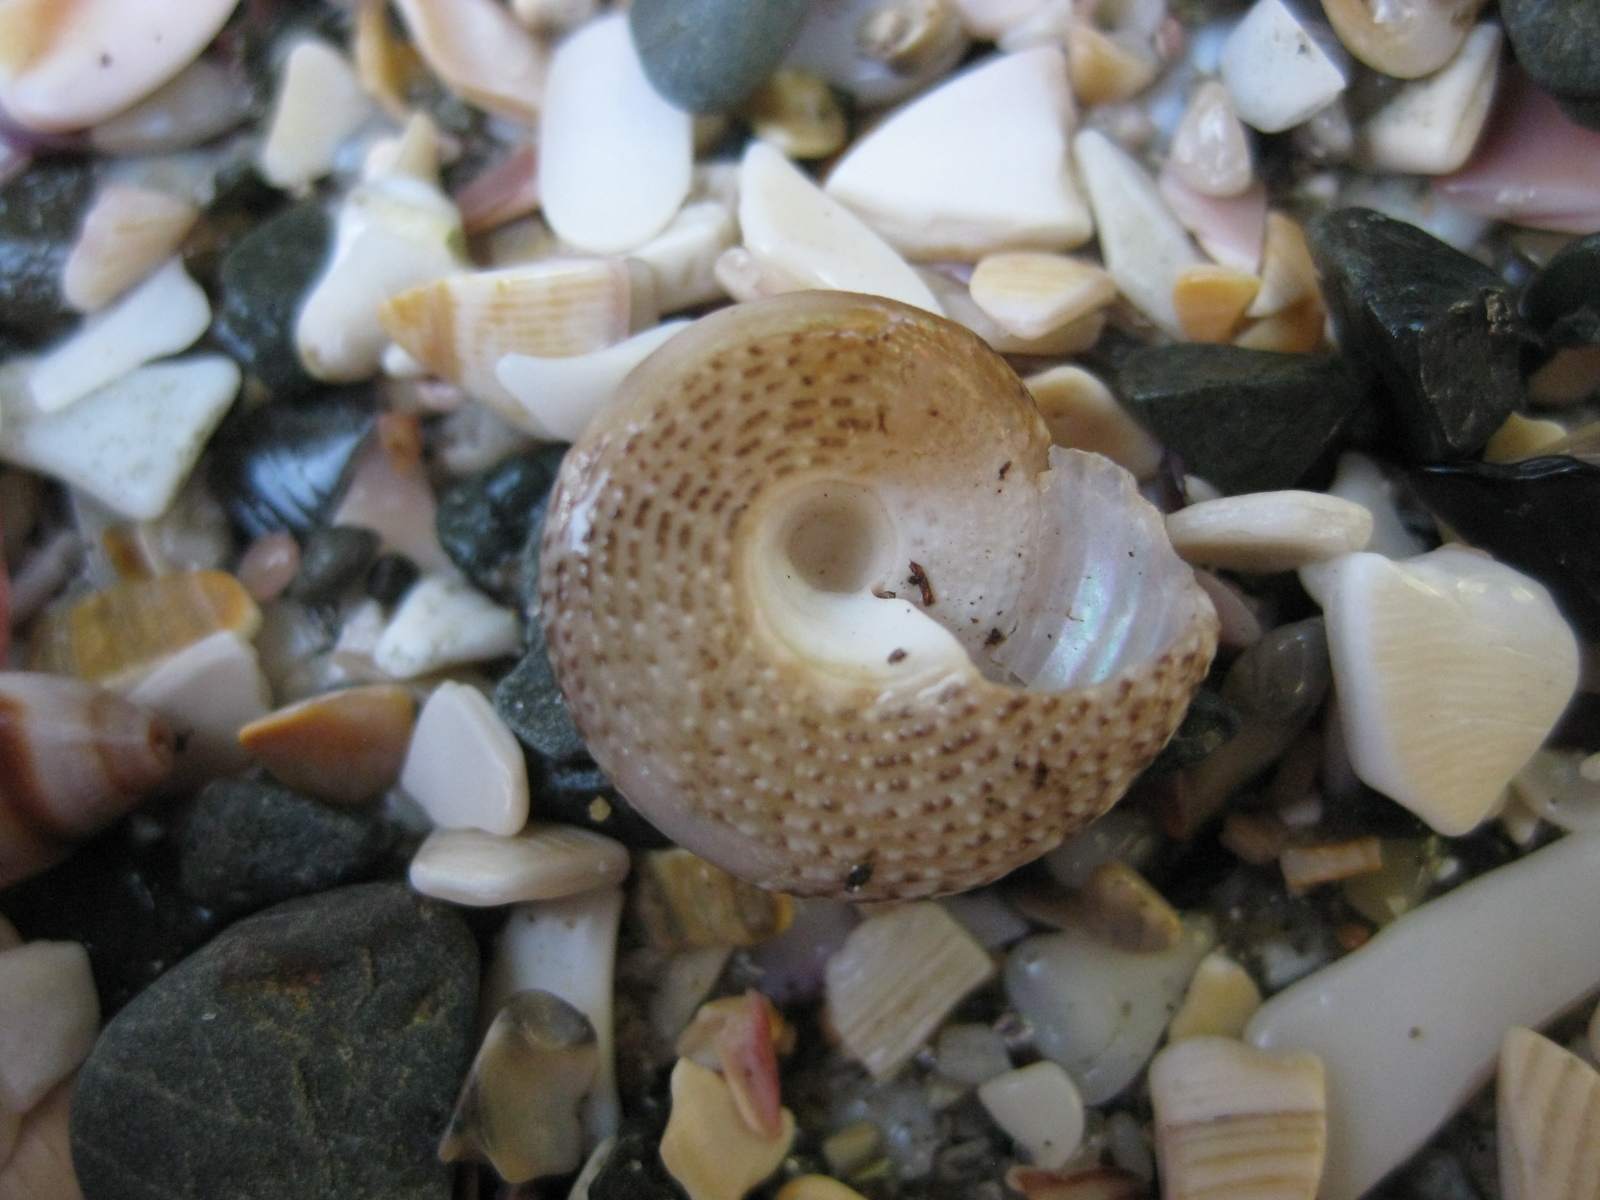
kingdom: Animalia
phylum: Mollusca
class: Gastropoda
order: Trochida
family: Trochidae
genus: Coelotrochus
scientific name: Coelotrochus tiaratus
